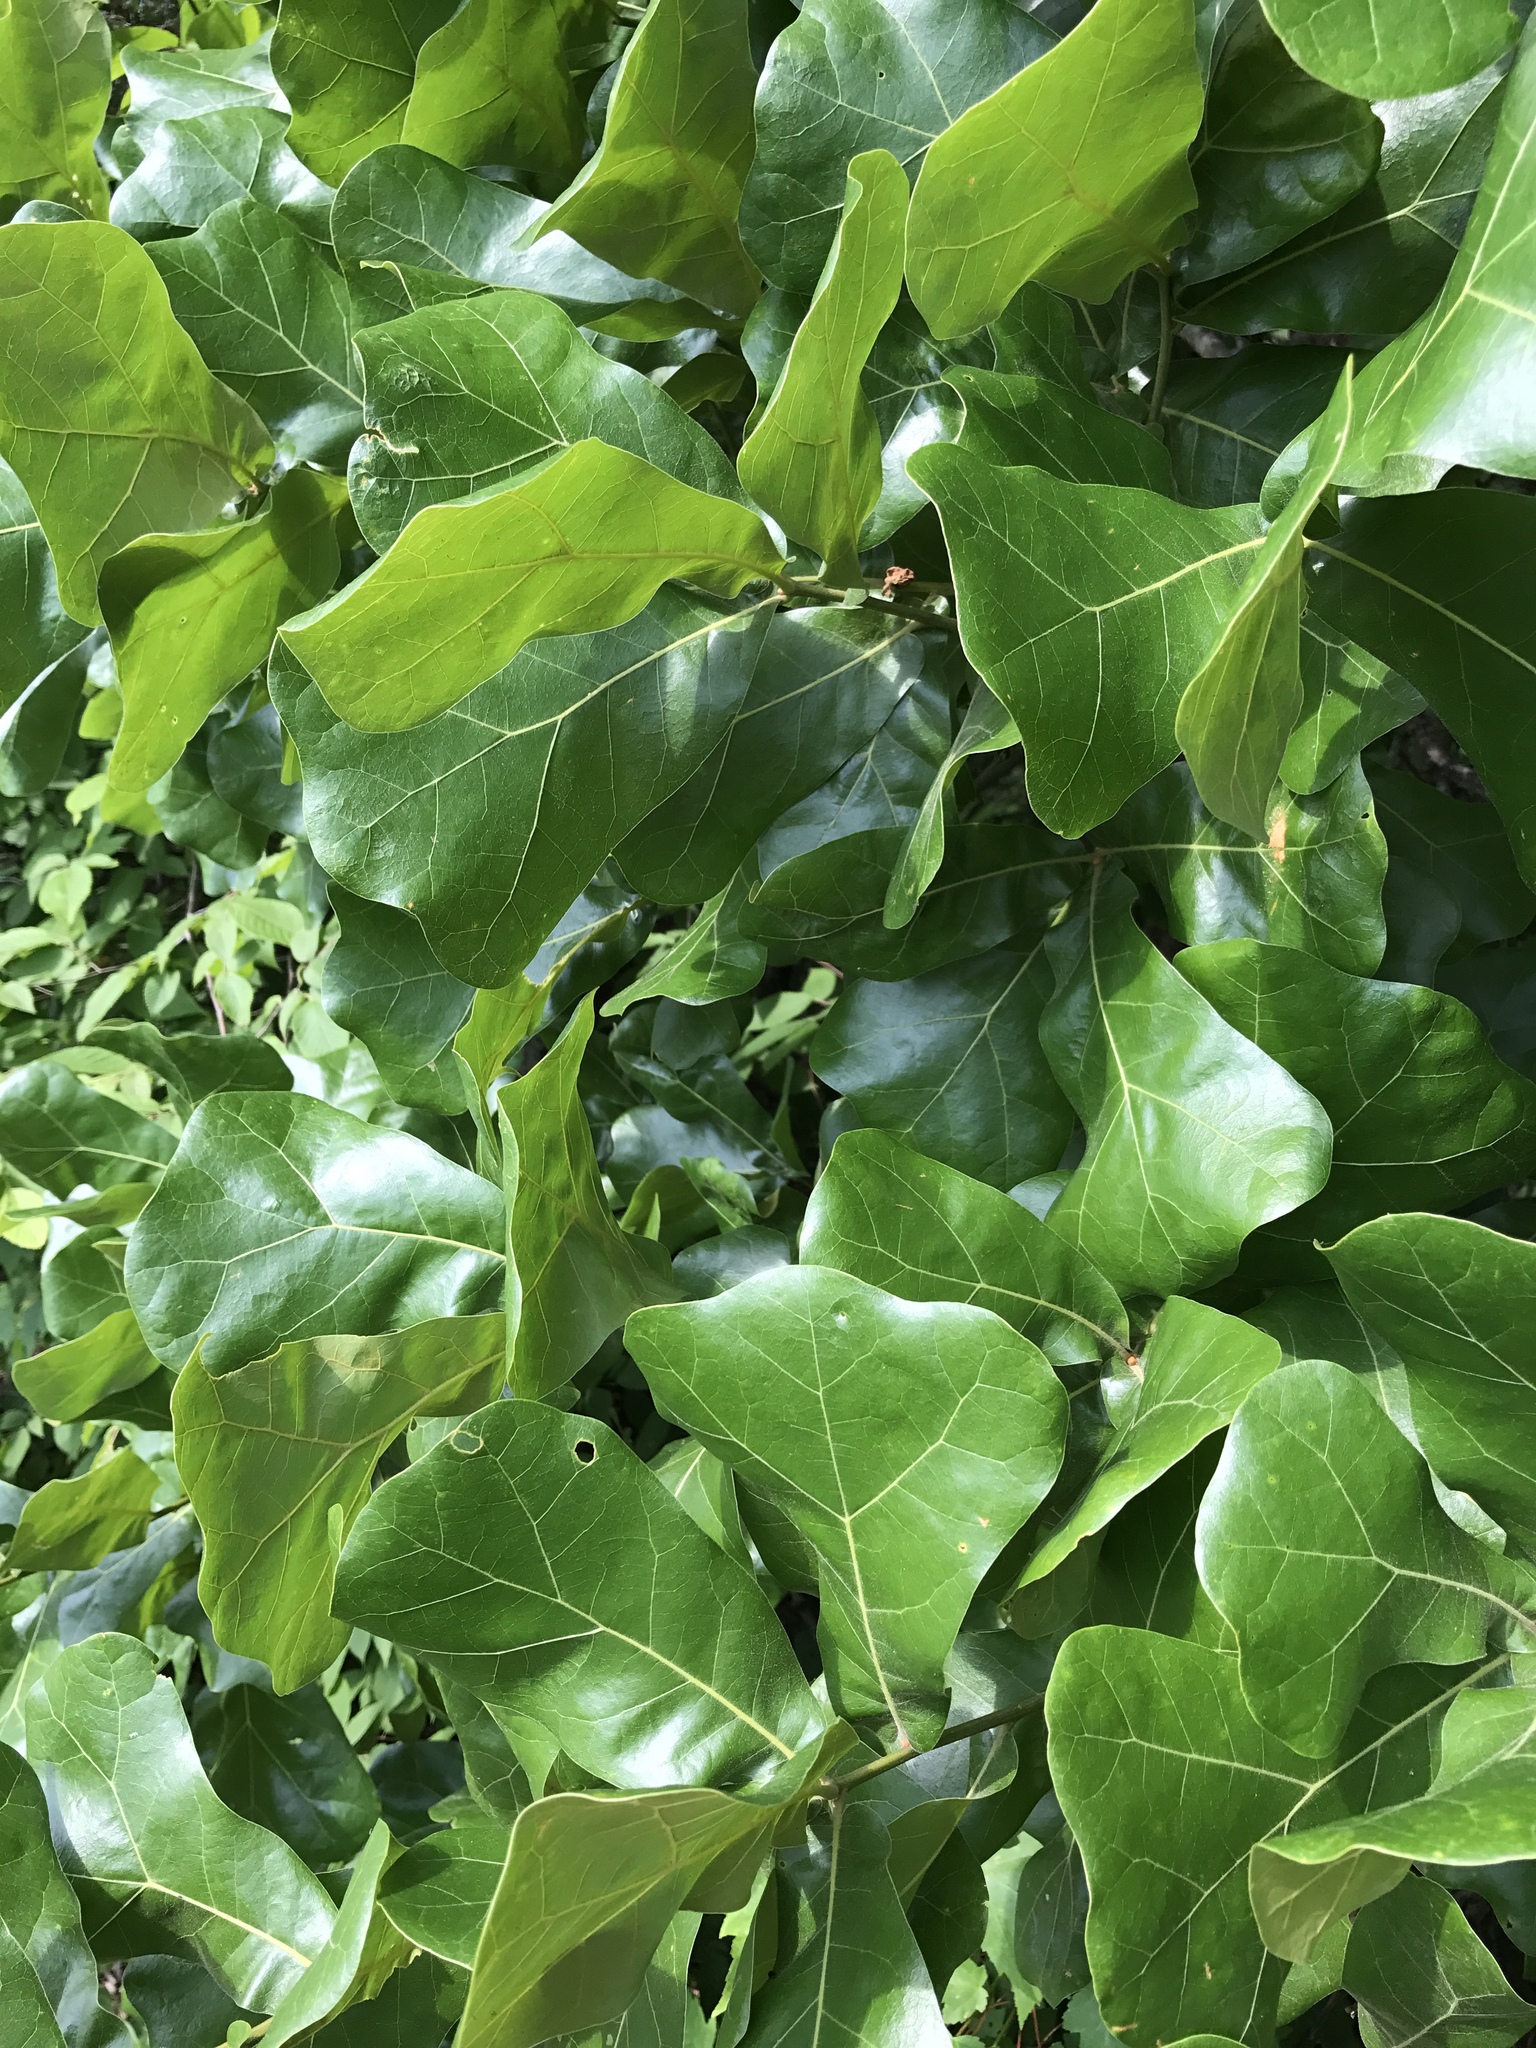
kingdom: Plantae
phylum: Tracheophyta
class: Magnoliopsida
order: Fagales
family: Fagaceae
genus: Quercus
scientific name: Quercus marilandica
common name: Blackjack oak
